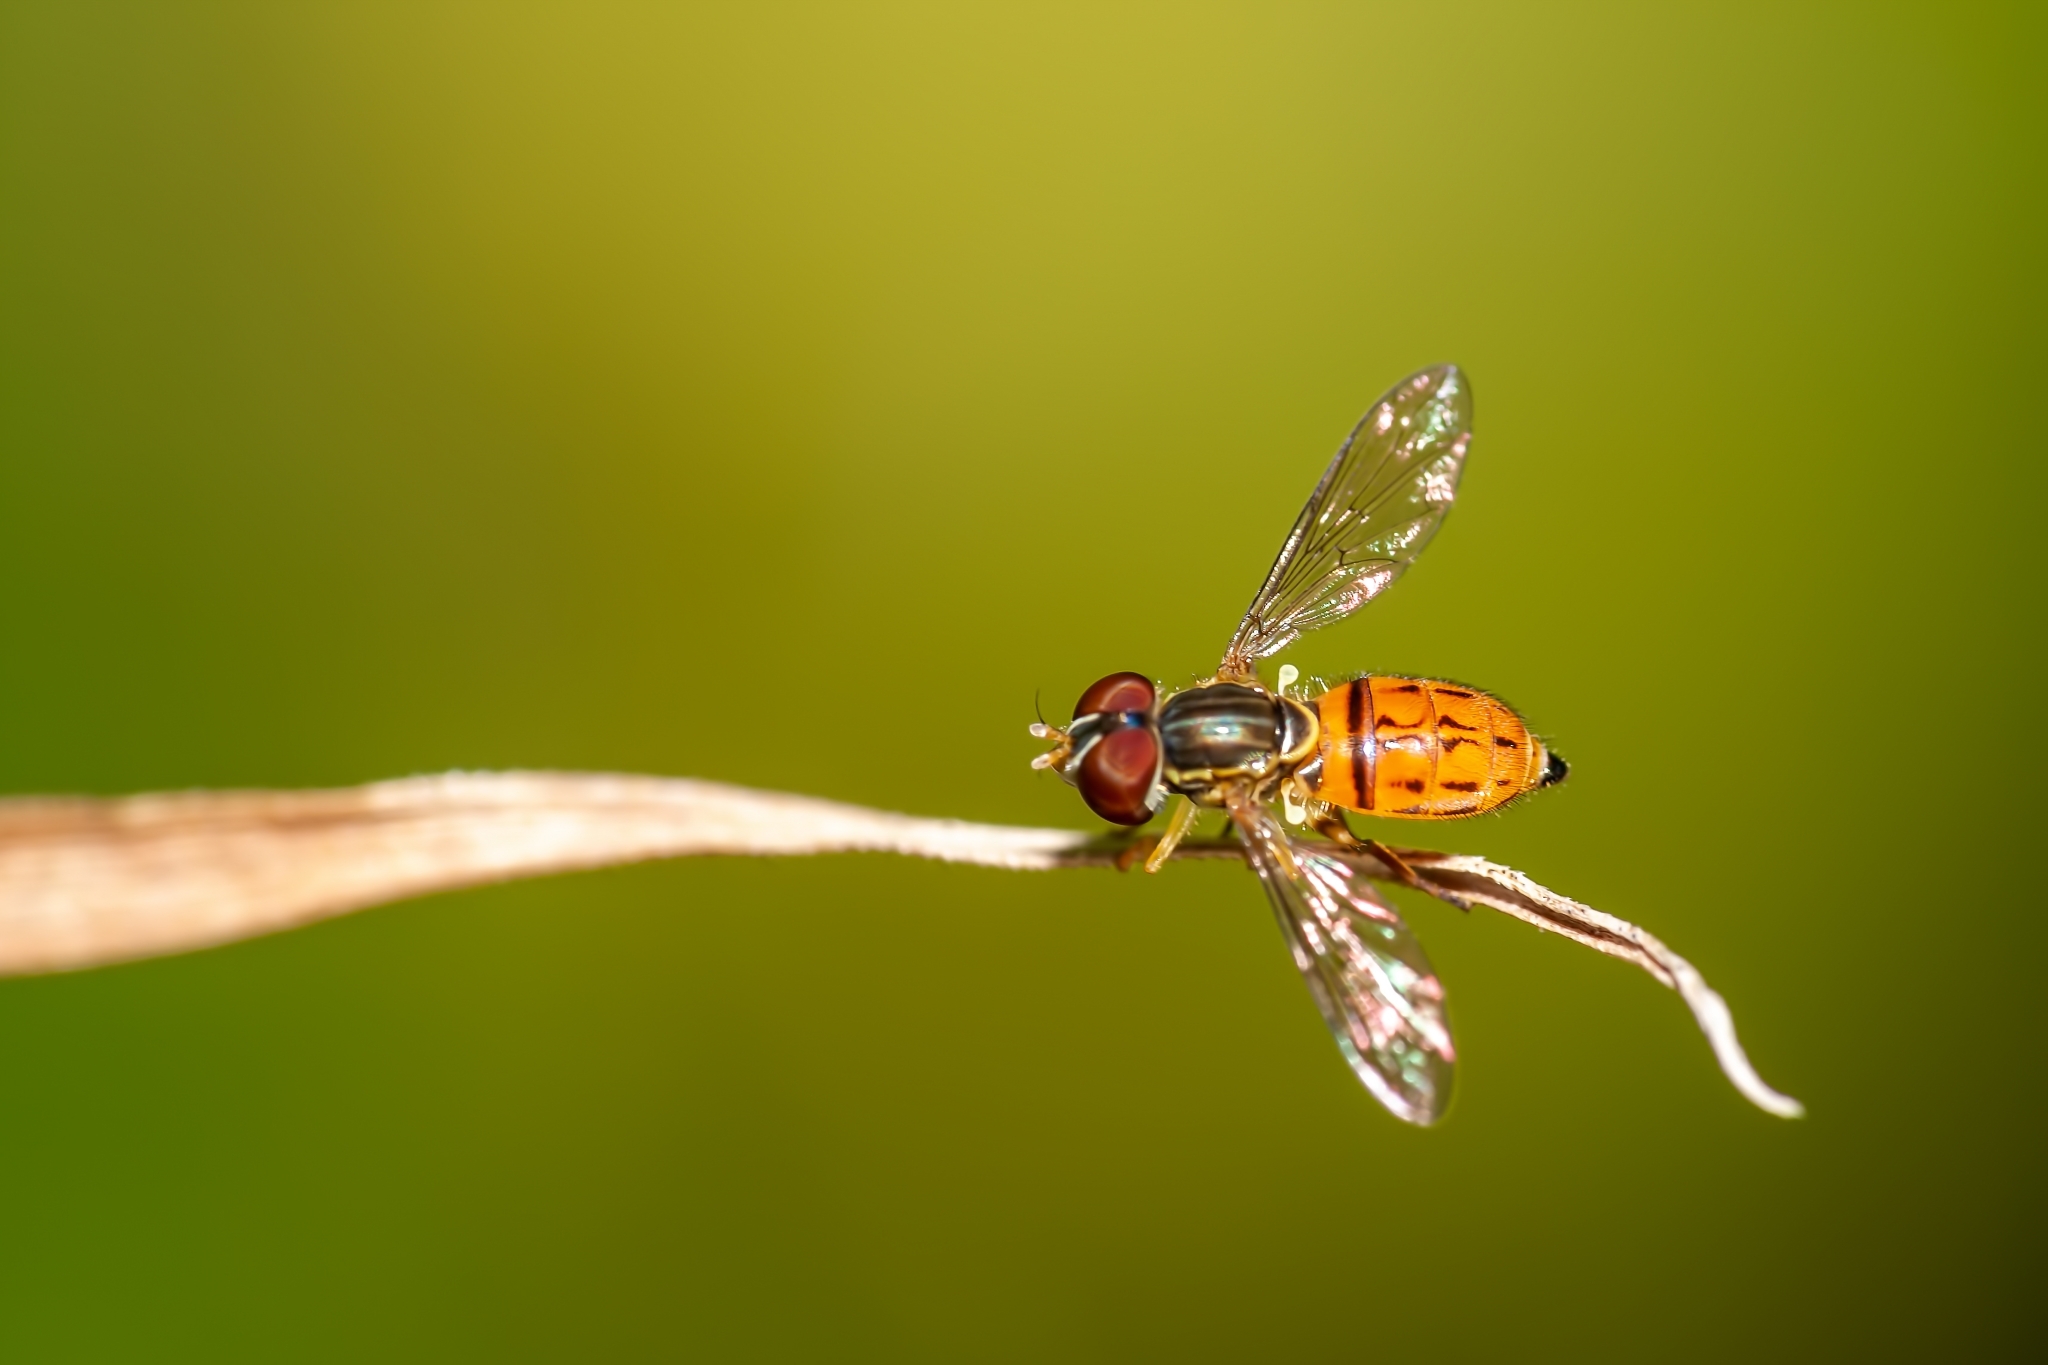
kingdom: Animalia
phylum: Arthropoda
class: Insecta
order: Diptera
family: Syrphidae
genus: Toxomerus
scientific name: Toxomerus boscii
